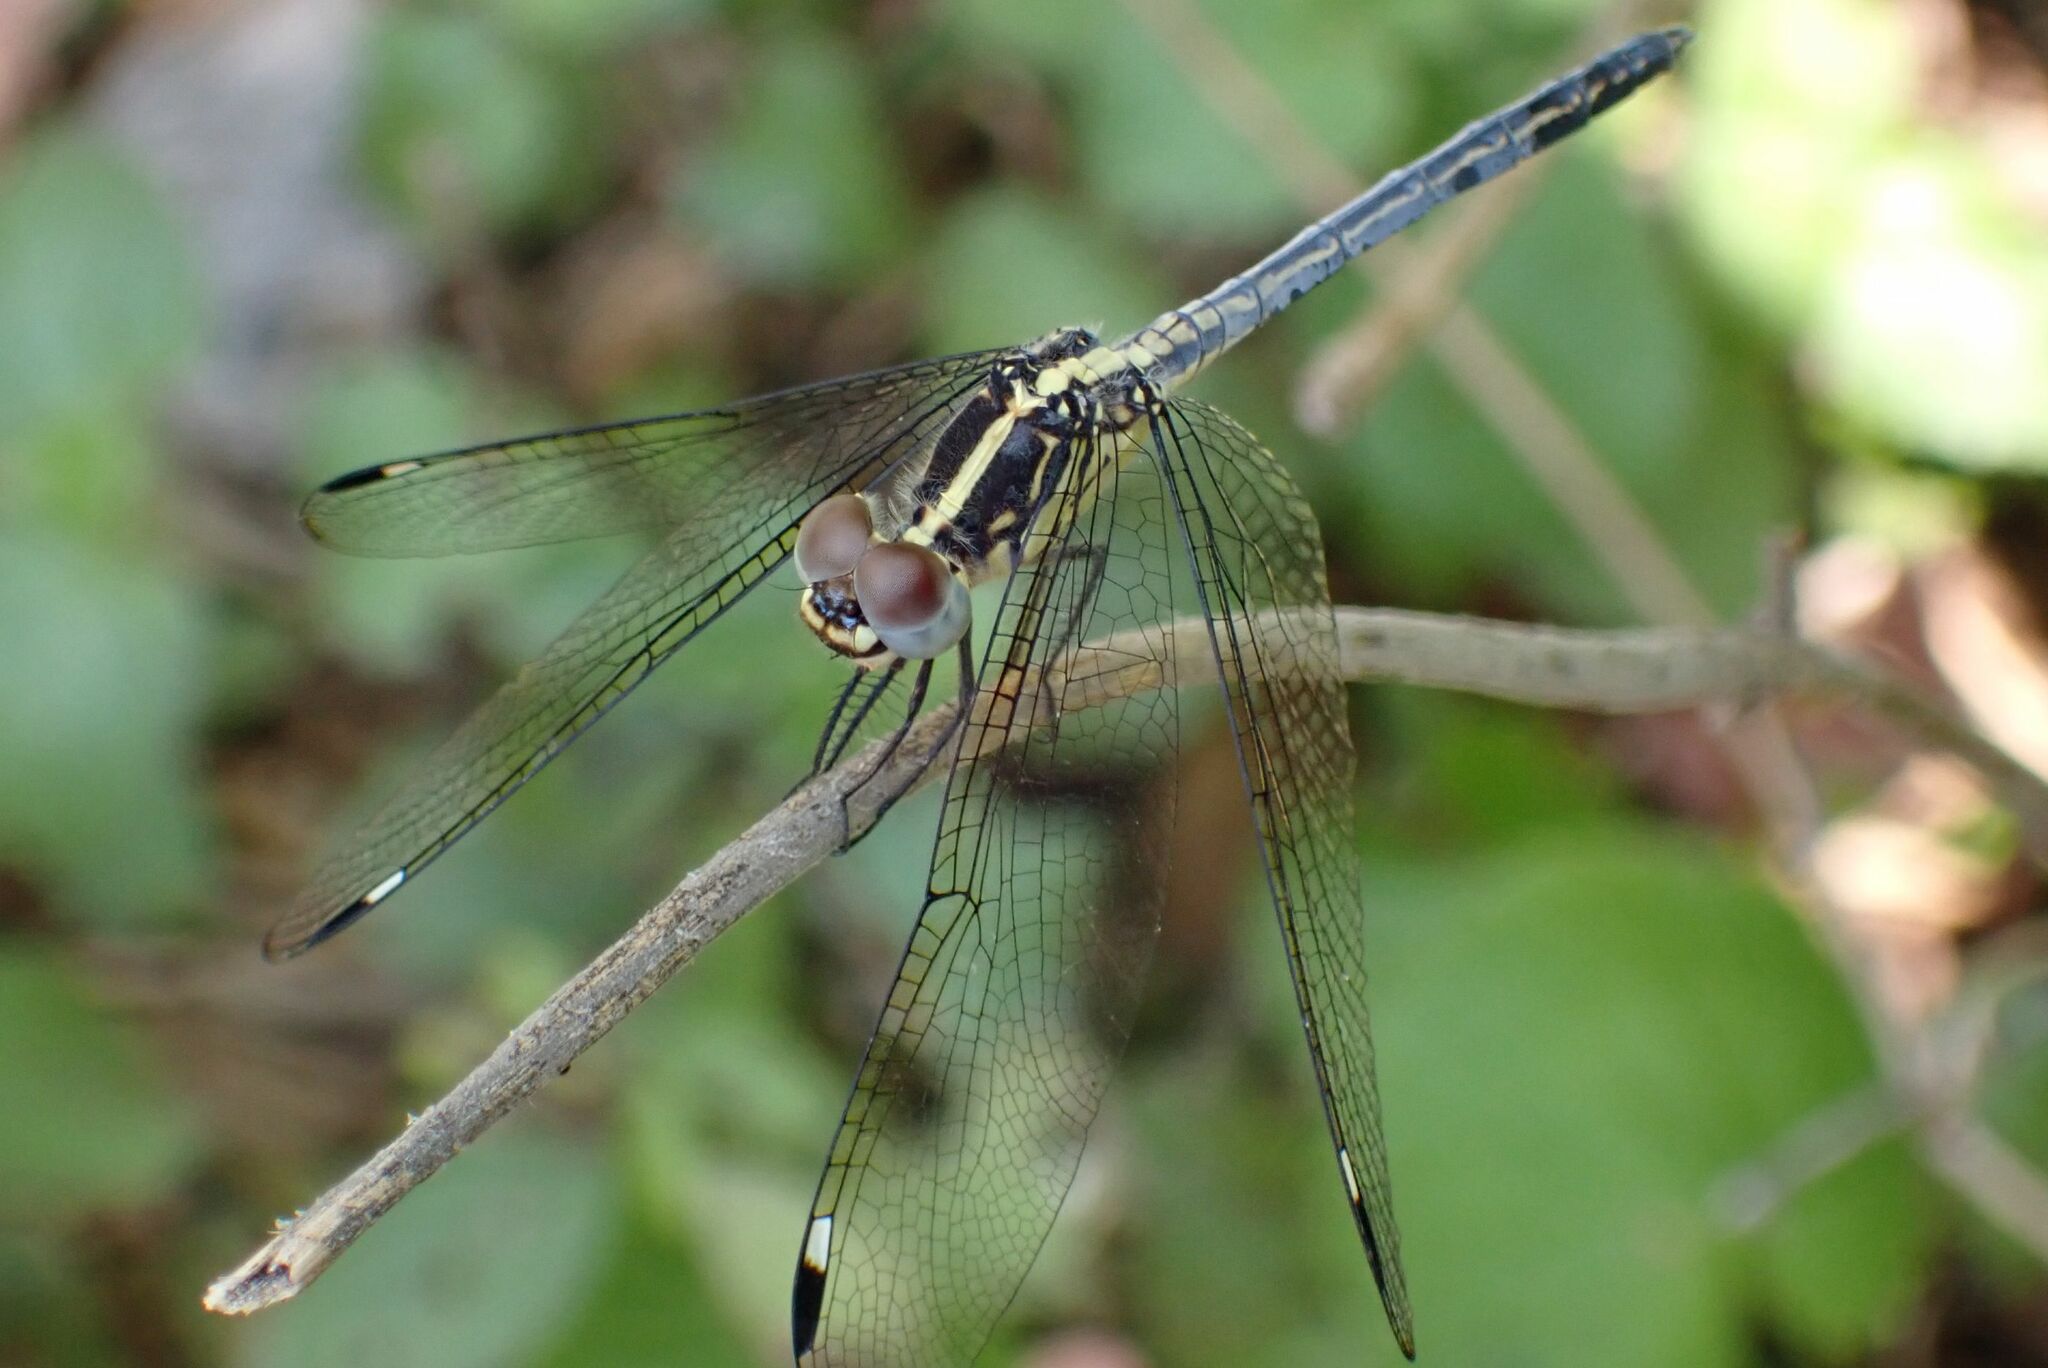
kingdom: Animalia
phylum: Arthropoda
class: Insecta
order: Odonata
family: Libellulidae
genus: Hemistigma
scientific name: Hemistigma albipunctum
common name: African pied-spot
